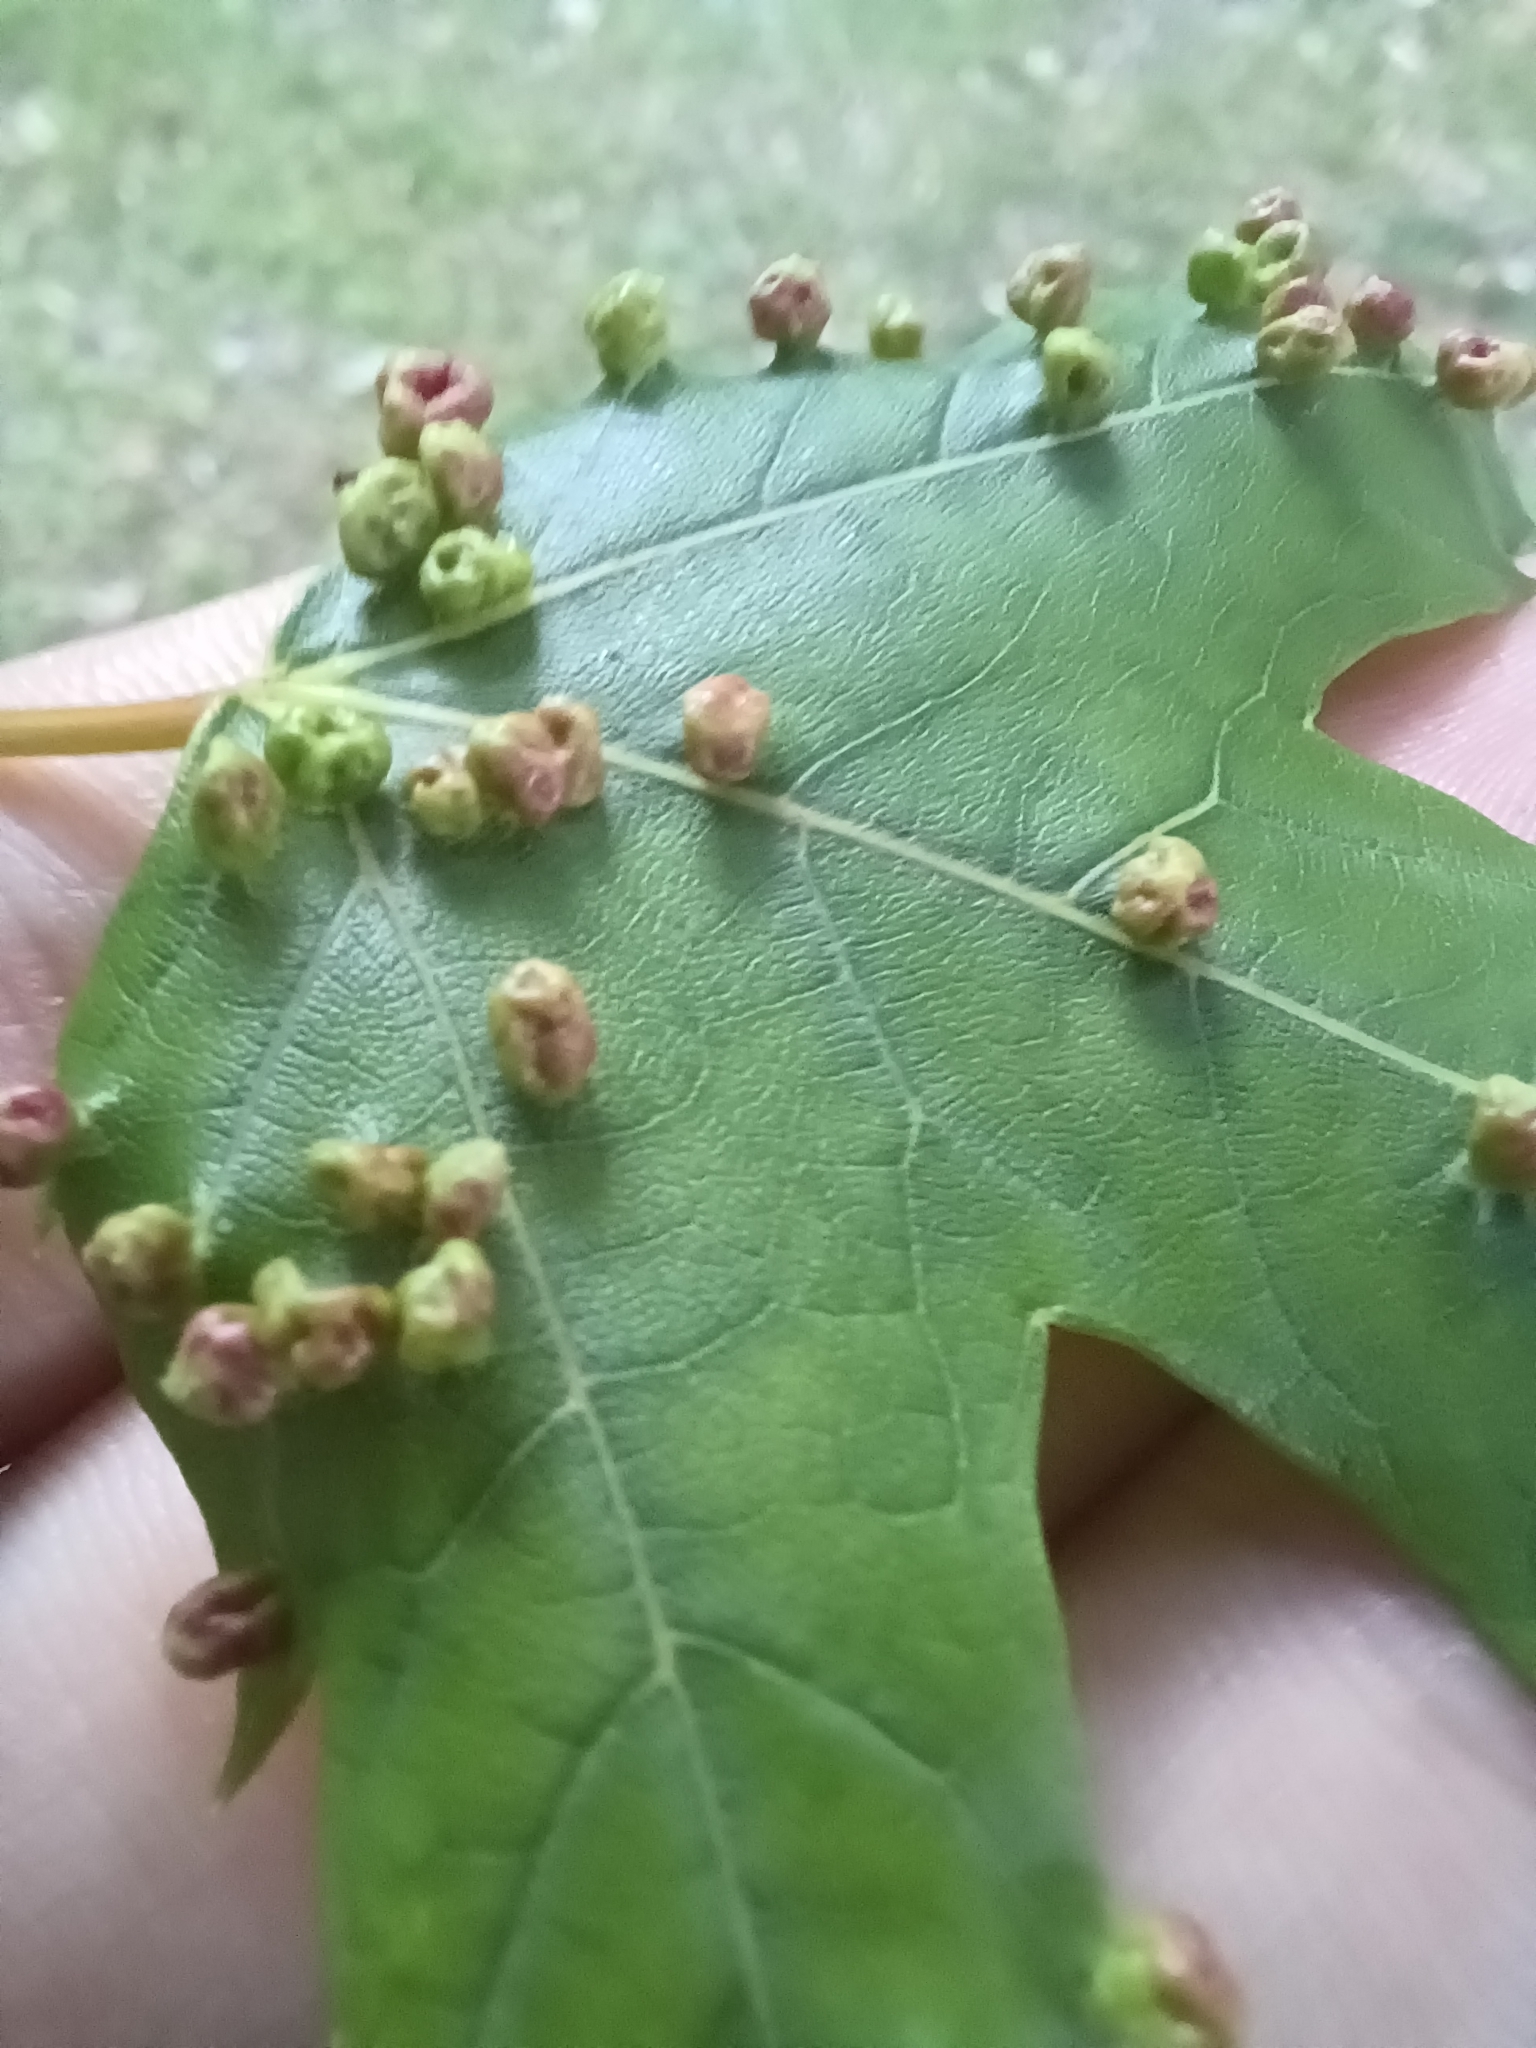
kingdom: Animalia
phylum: Arthropoda
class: Arachnida
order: Trombidiformes
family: Eriophyidae
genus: Vasates
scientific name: Vasates quadripedes
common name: Maple bladder gall mite
